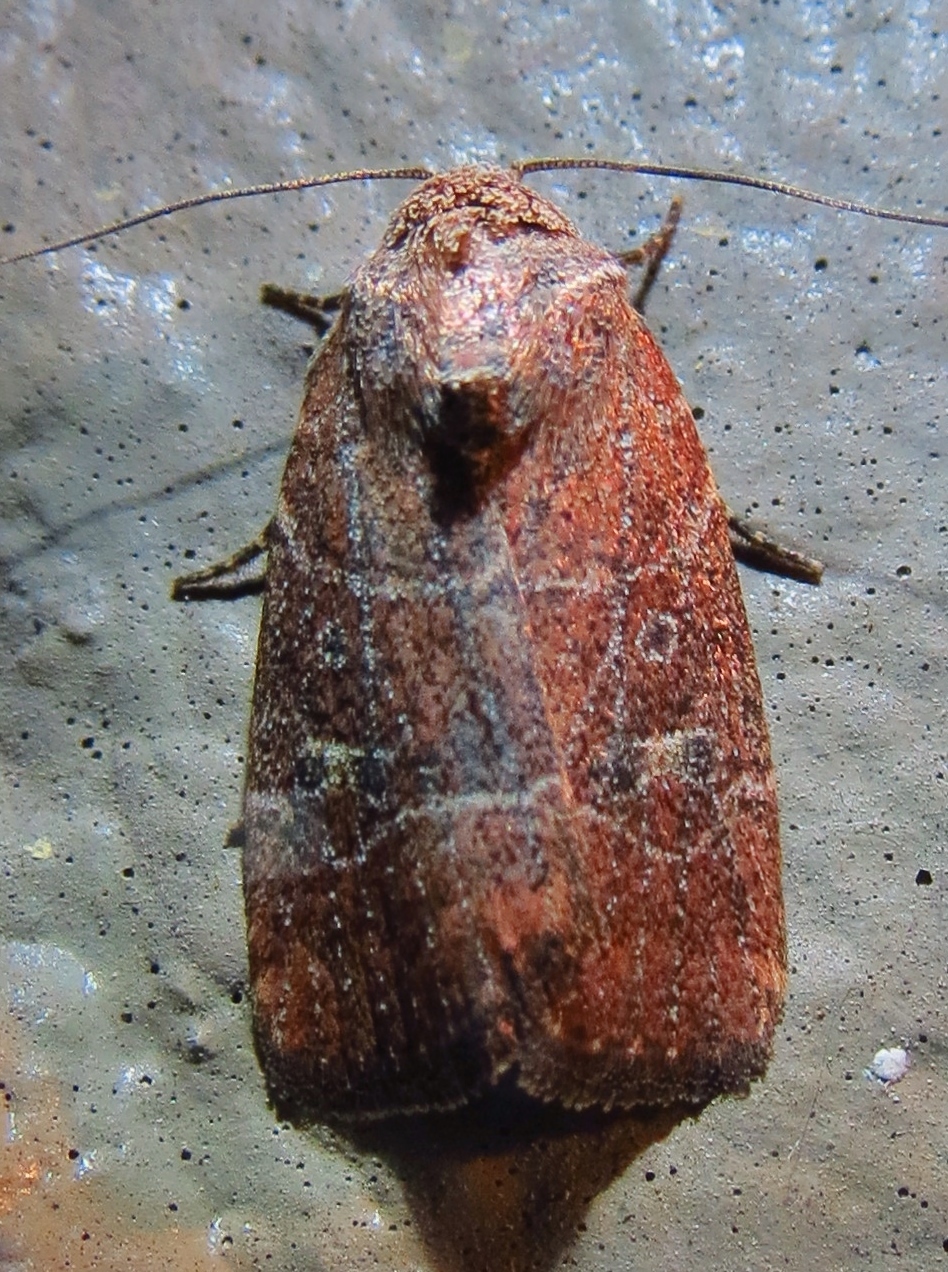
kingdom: Animalia
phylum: Arthropoda
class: Insecta
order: Lepidoptera
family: Noctuidae
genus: Elaphria
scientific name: Elaphria grata
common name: Grateful midget moth
